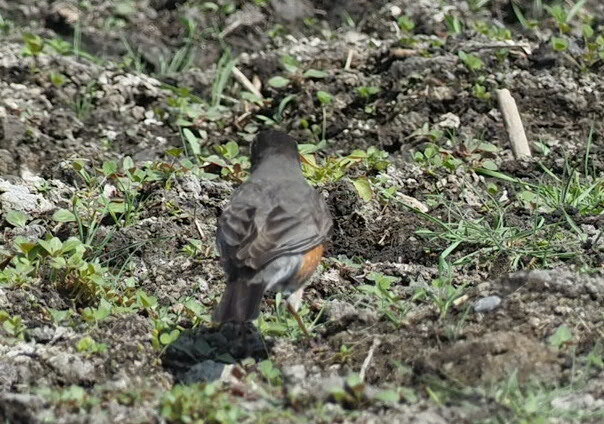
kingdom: Animalia
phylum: Chordata
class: Aves
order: Passeriformes
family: Turdidae
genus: Turdus
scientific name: Turdus migratorius
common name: American robin
